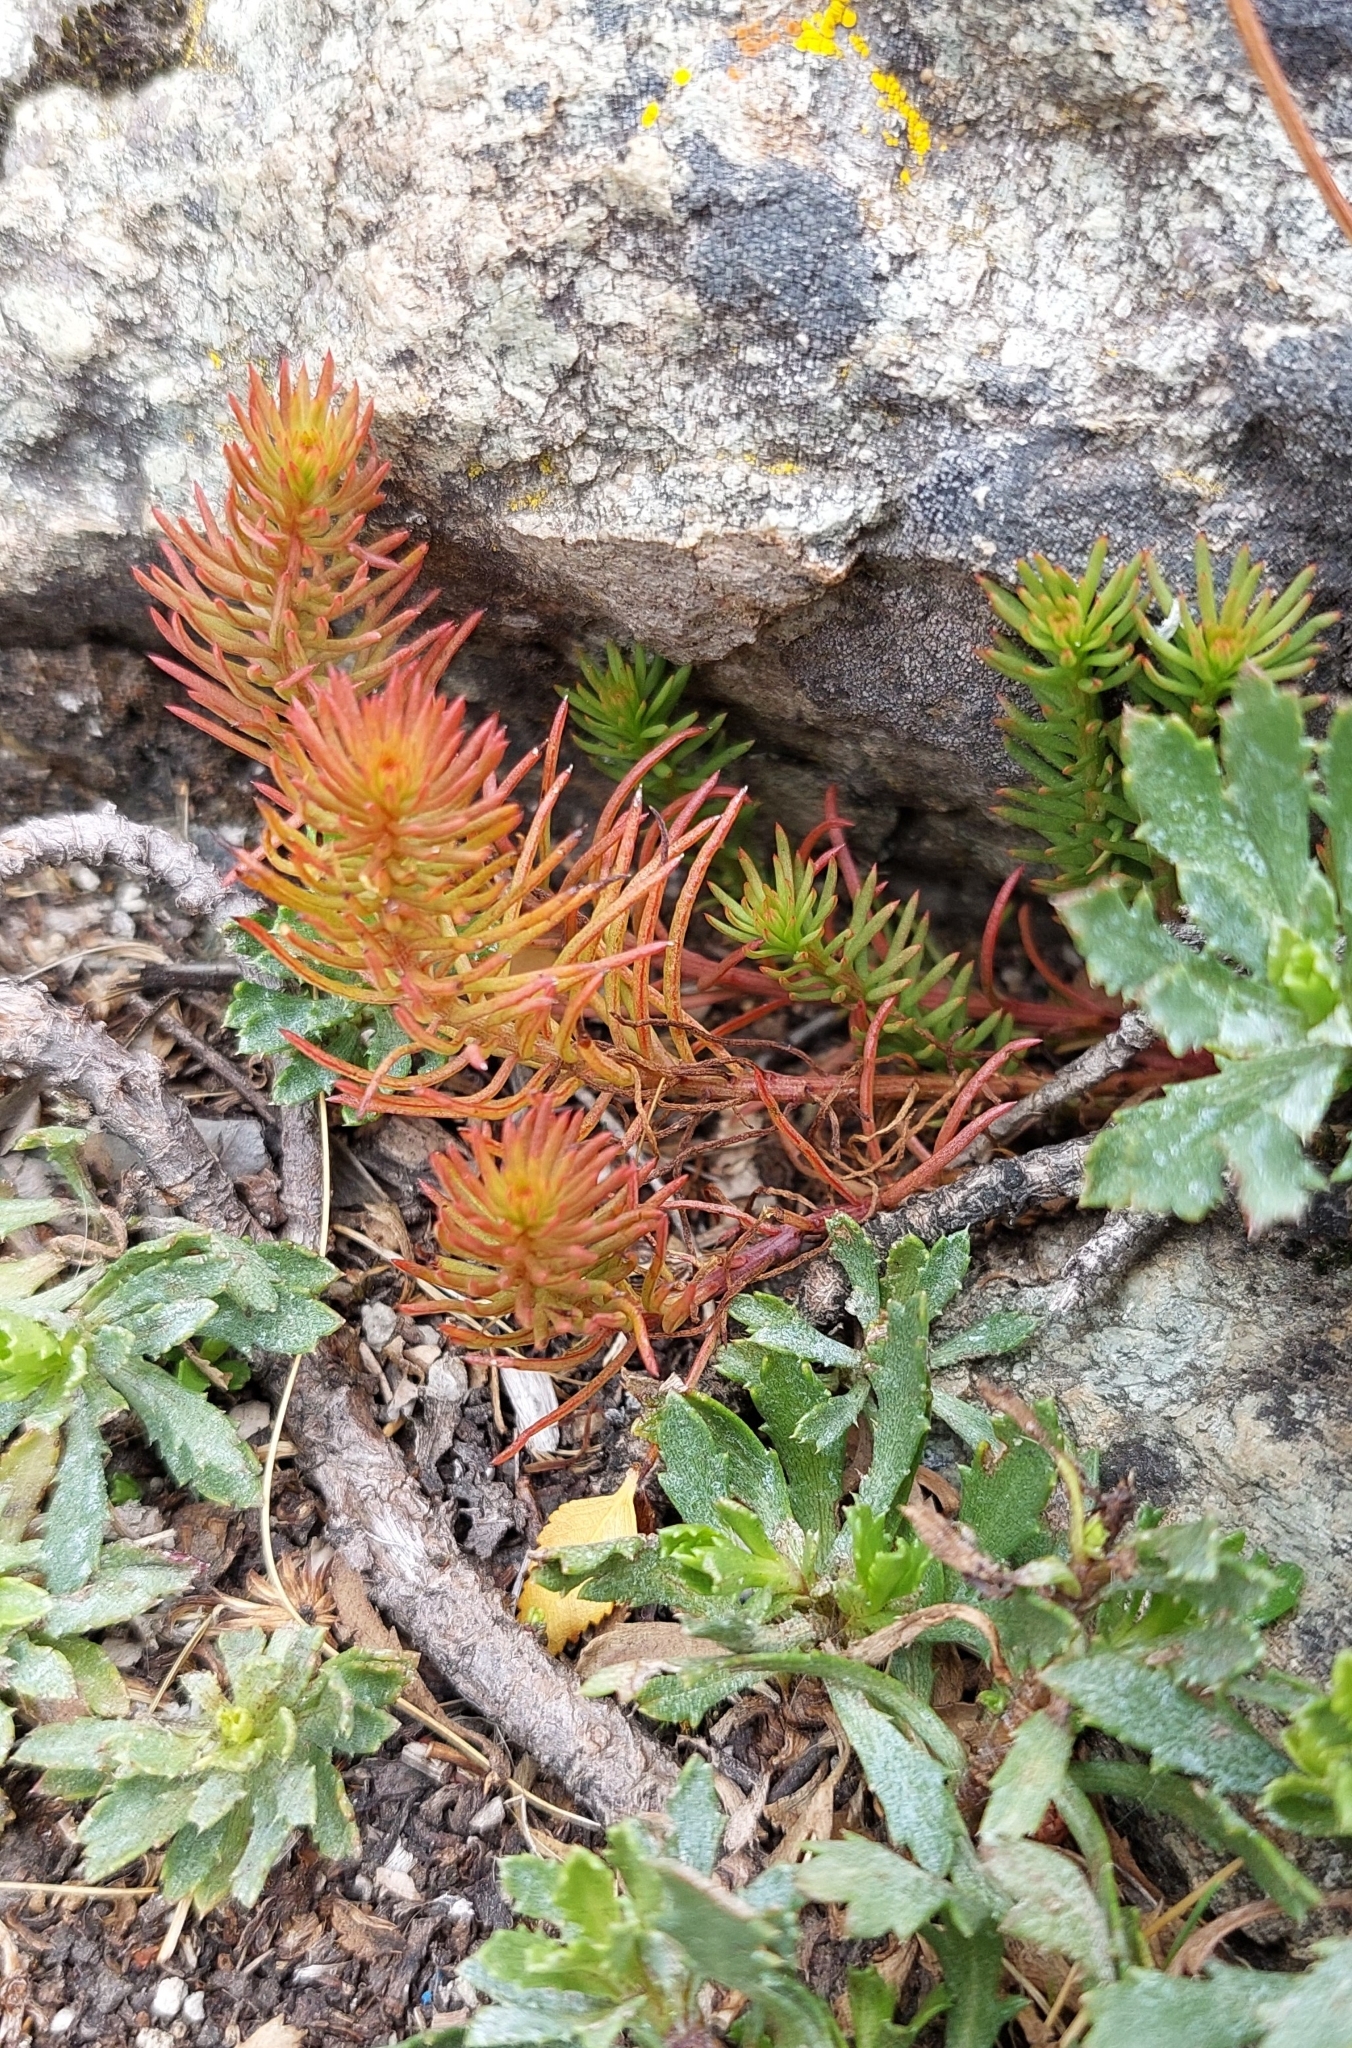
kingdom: Plantae
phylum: Tracheophyta
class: Magnoliopsida
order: Santalales
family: Schoepfiaceae
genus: Quinchamalium
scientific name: Quinchamalium chilense
